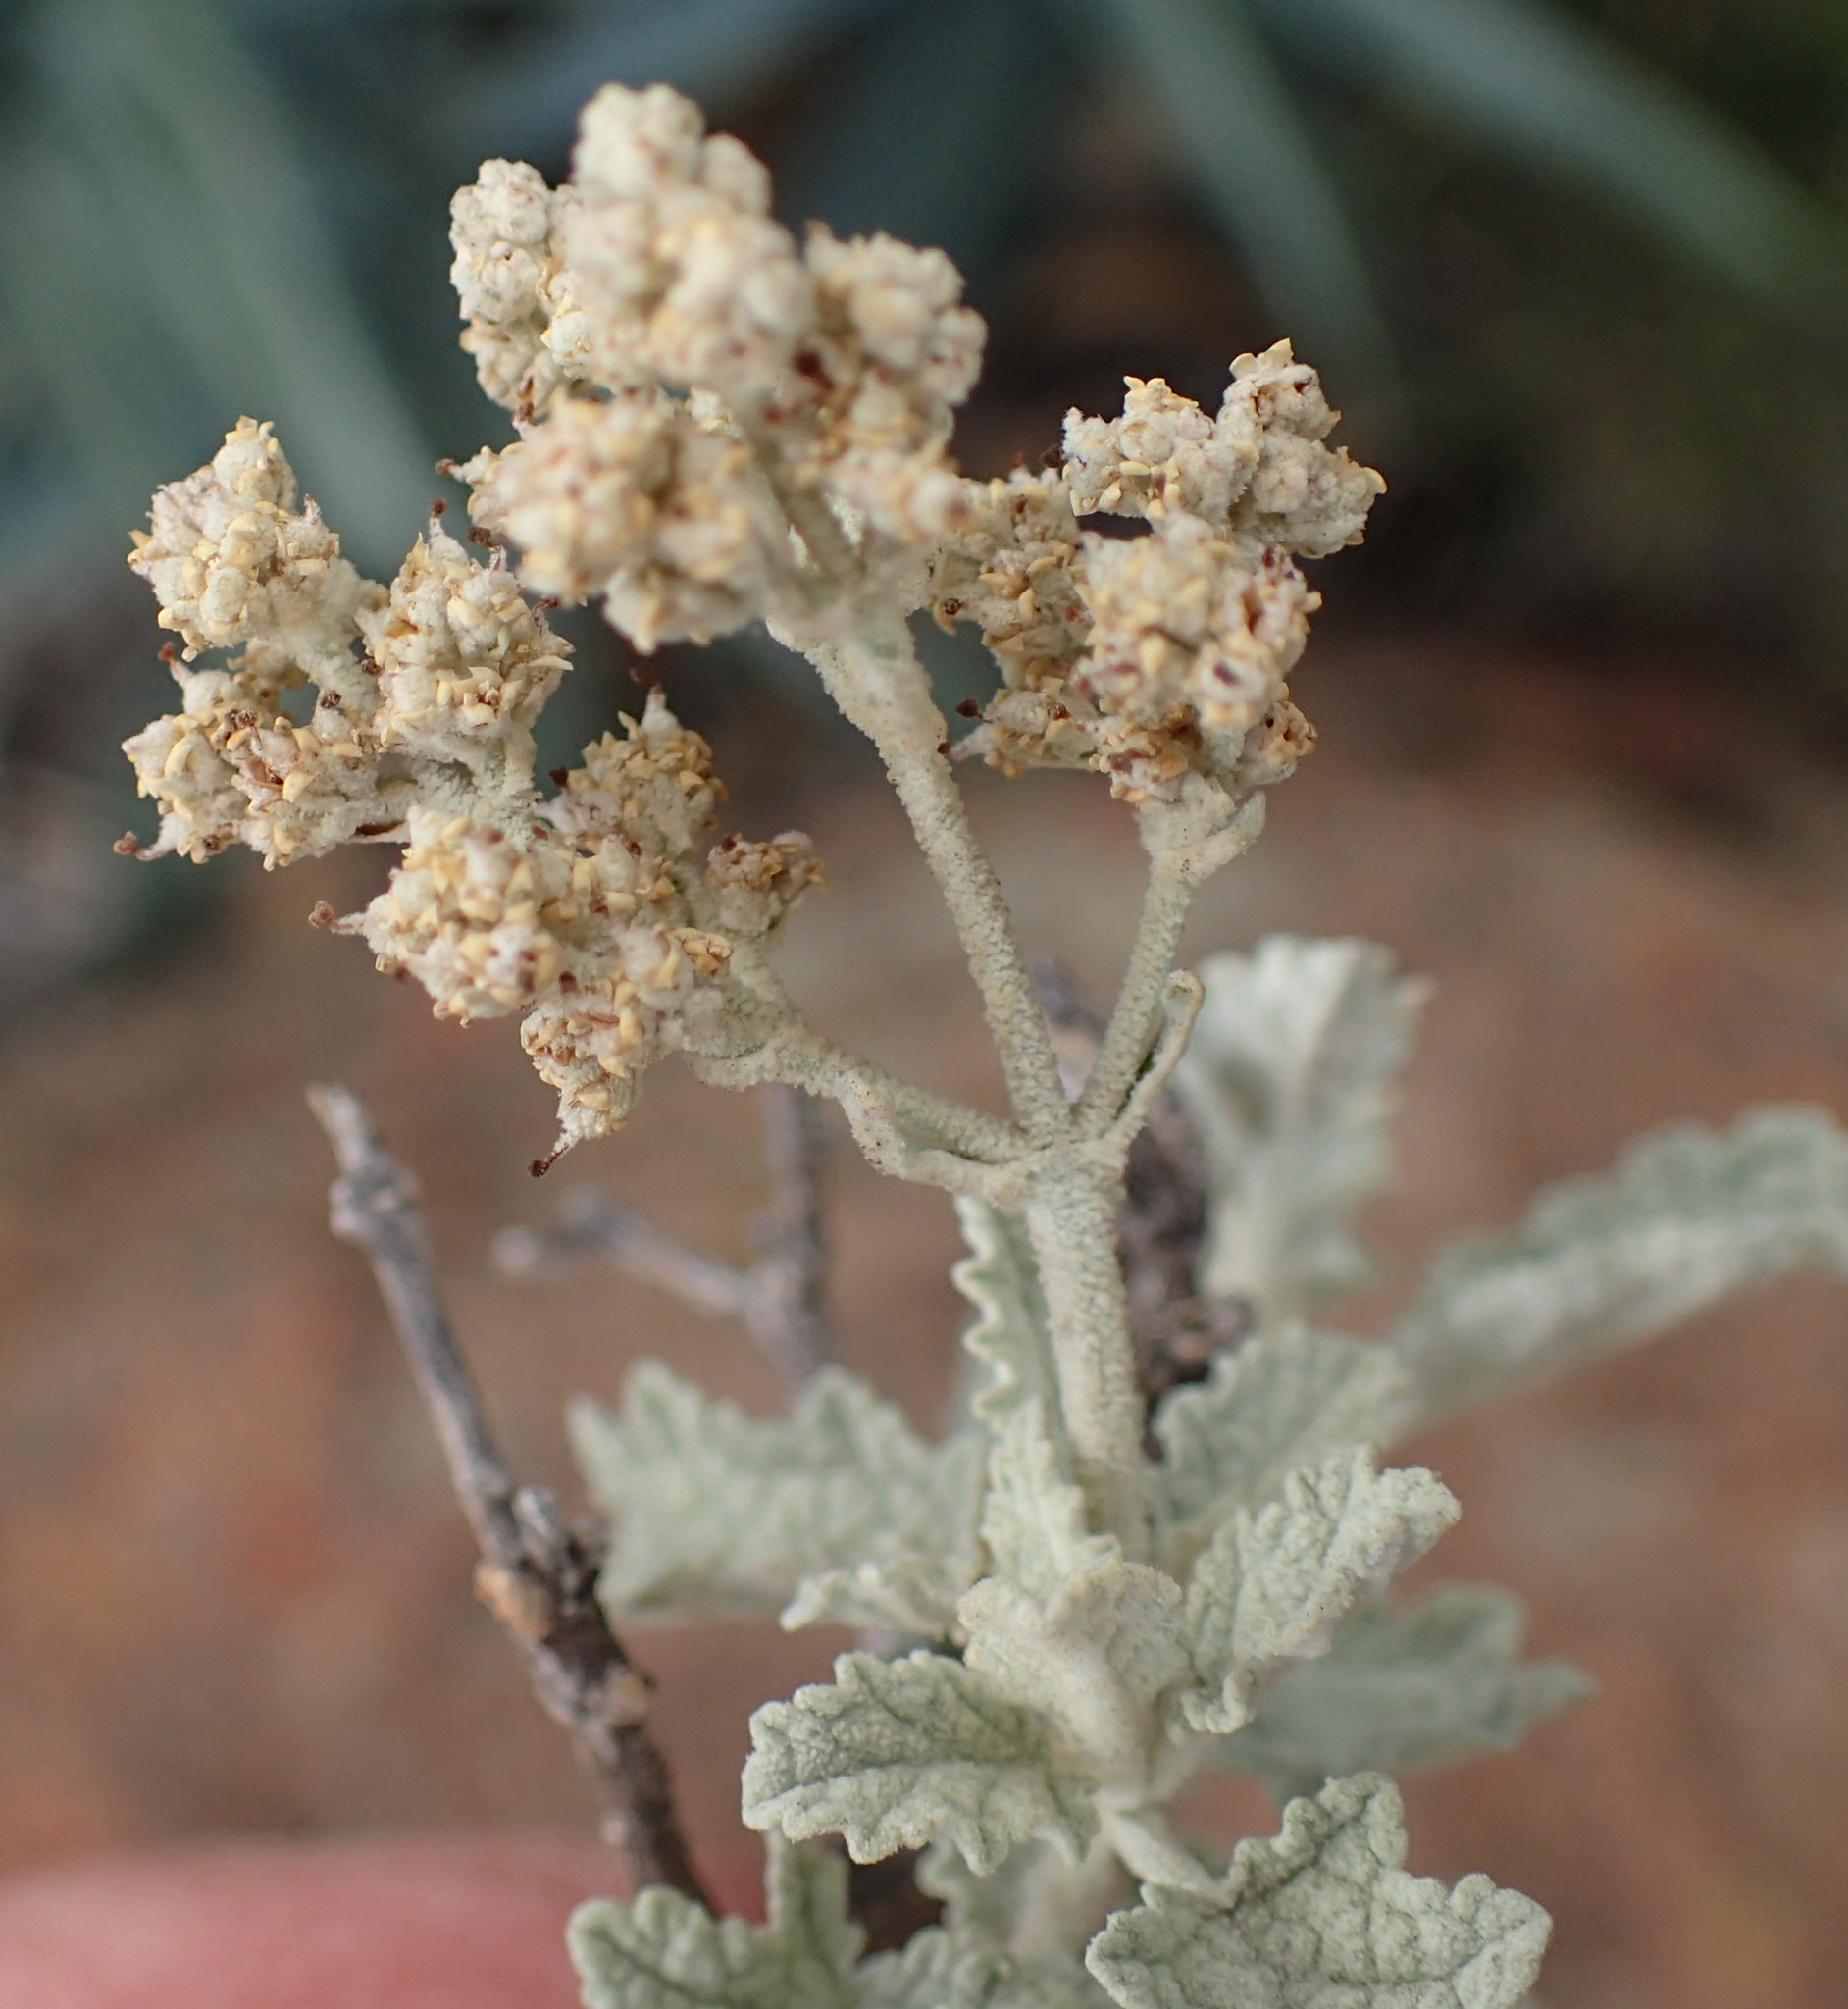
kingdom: Plantae
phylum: Tracheophyta
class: Magnoliopsida
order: Lamiales
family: Scrophulariaceae
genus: Buddleja
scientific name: Buddleja glomerata
